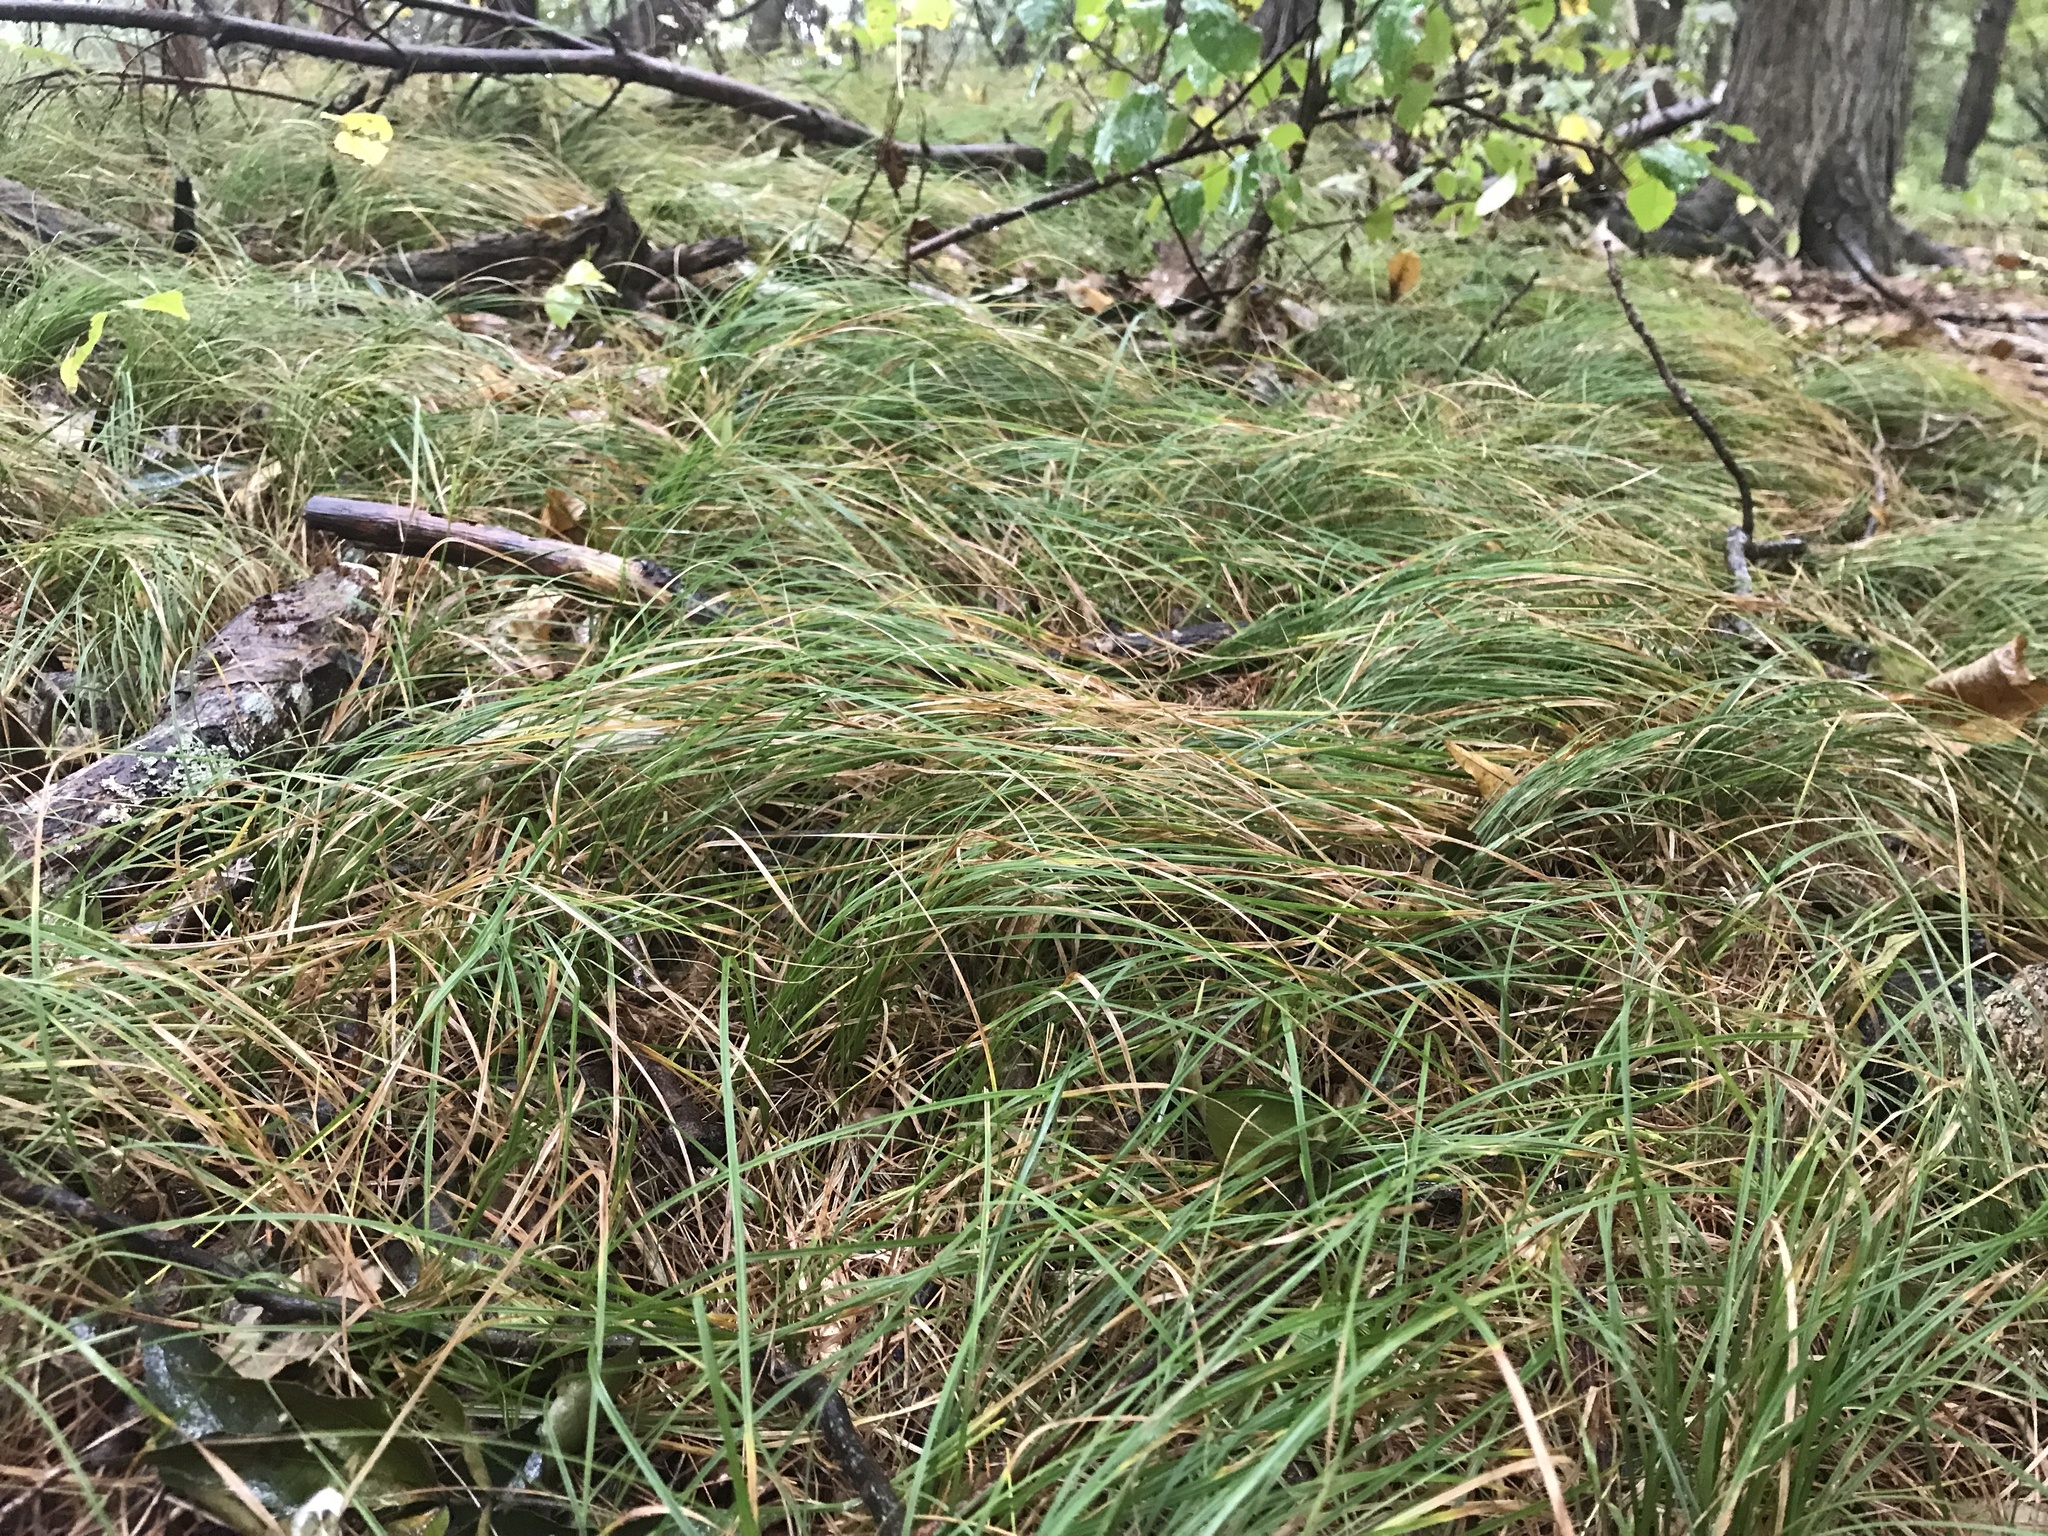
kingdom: Plantae
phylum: Tracheophyta
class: Liliopsida
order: Poales
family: Cyperaceae
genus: Carex
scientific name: Carex
